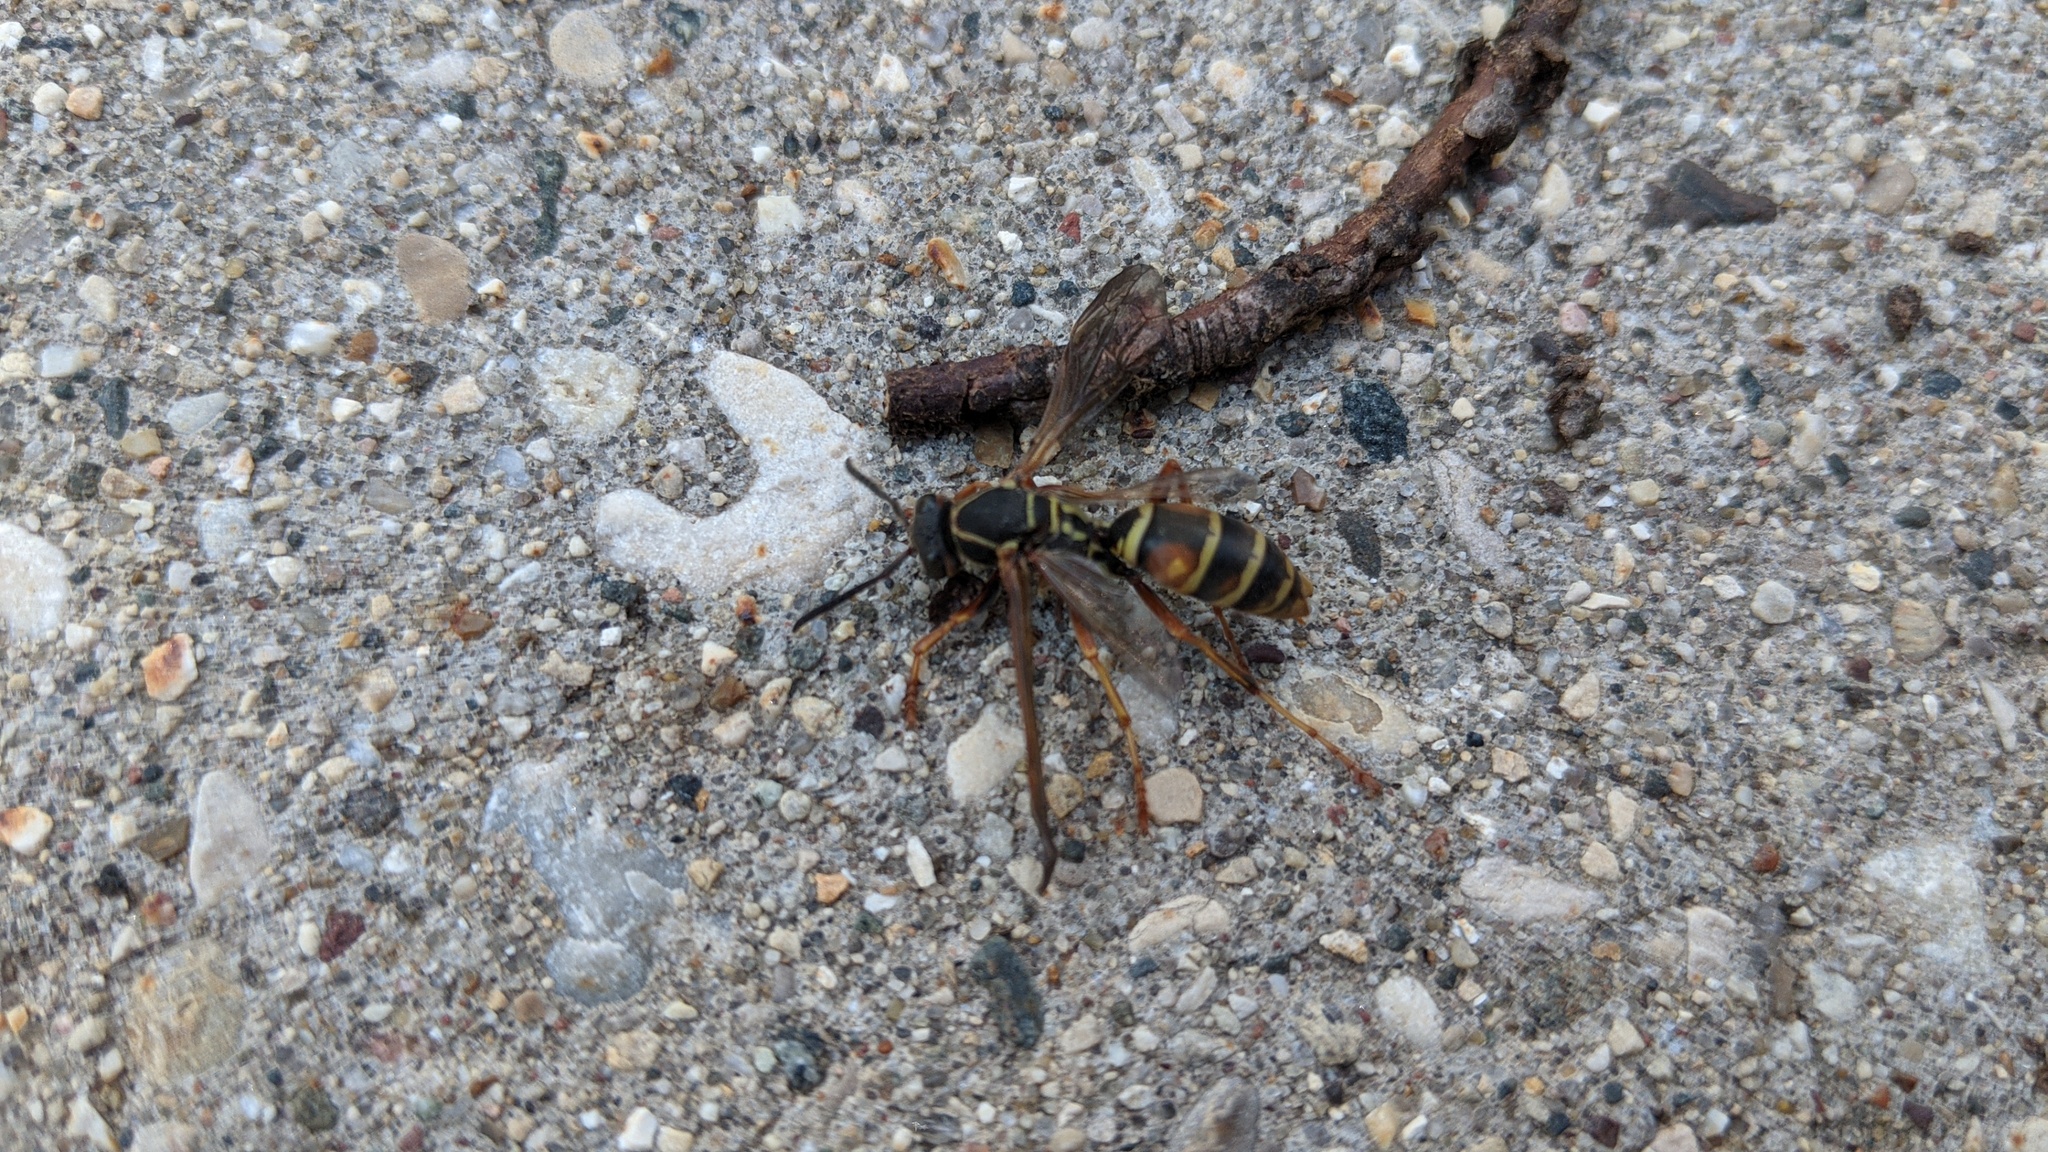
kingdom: Animalia
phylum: Arthropoda
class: Insecta
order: Hymenoptera
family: Eumenidae
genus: Polistes
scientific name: Polistes fuscatus
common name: Dark paper wasp
